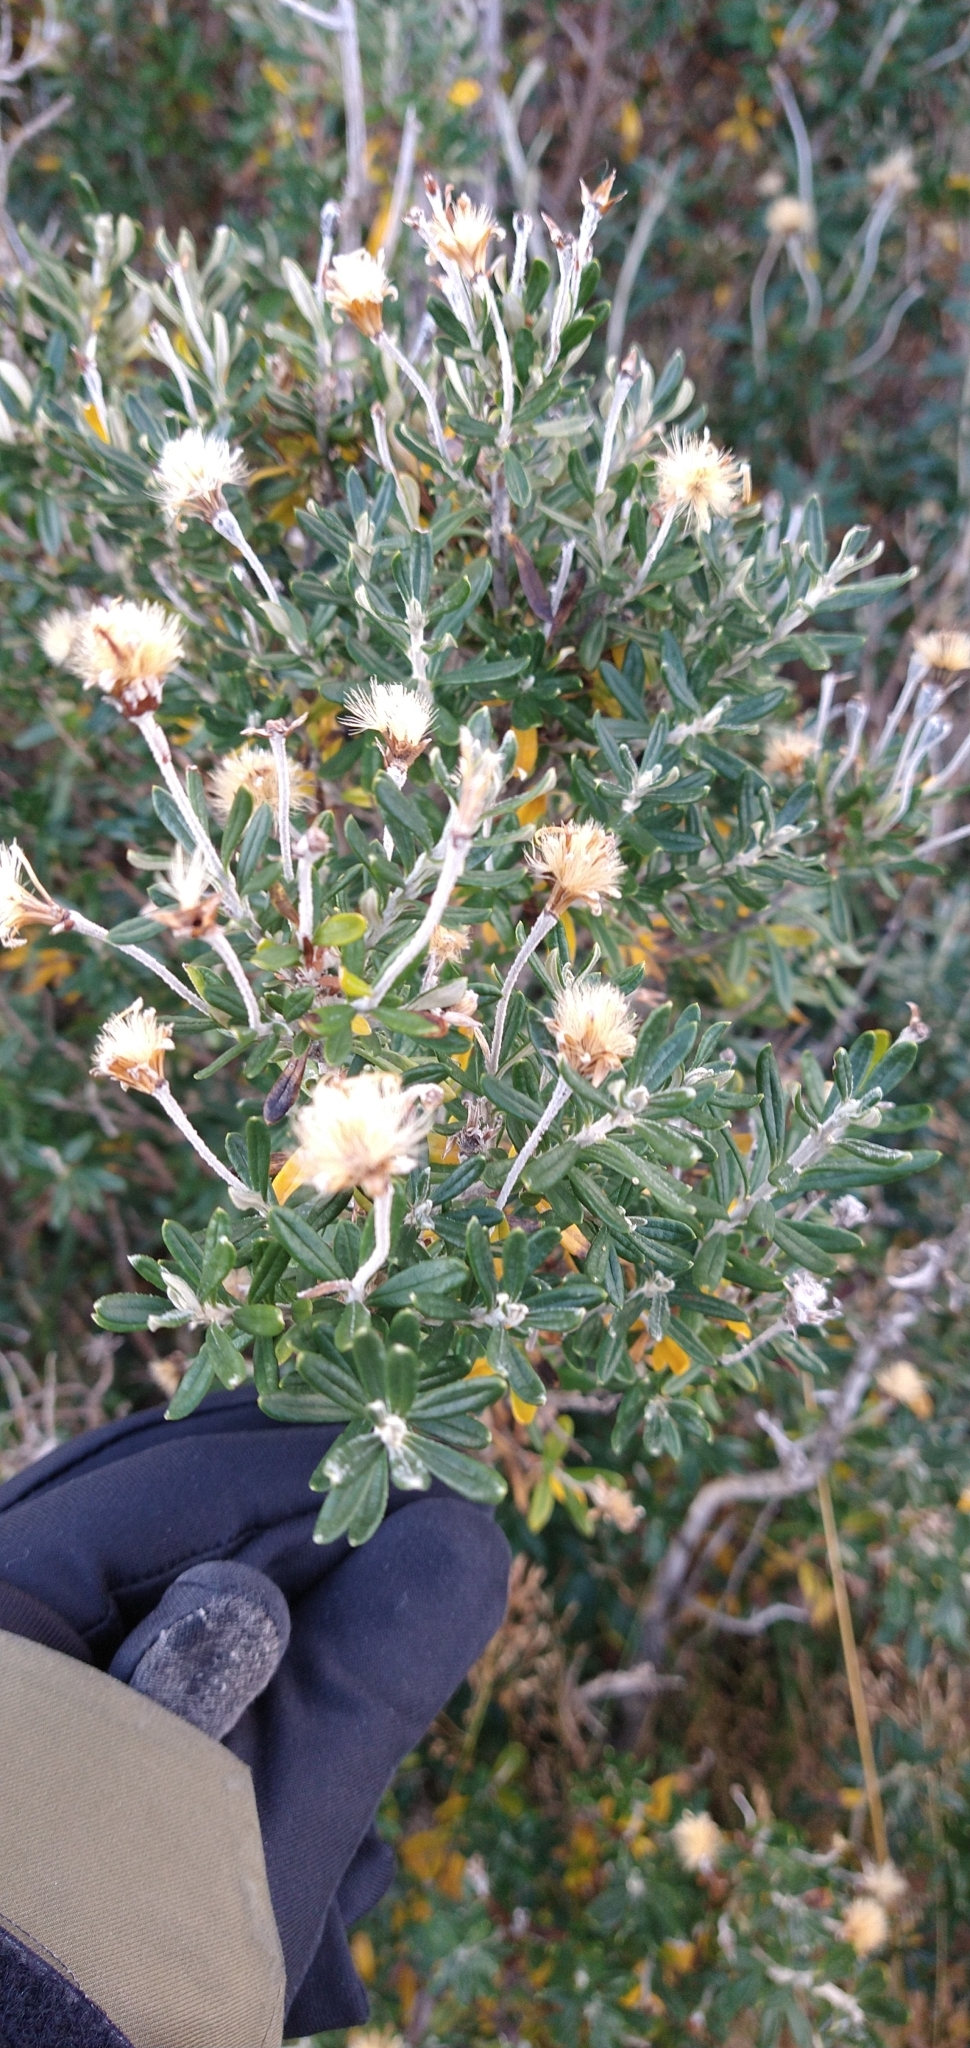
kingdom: Plantae
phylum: Tracheophyta
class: Magnoliopsida
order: Asterales
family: Asteraceae
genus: Chiliotrichum
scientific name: Chiliotrichum diffusum
